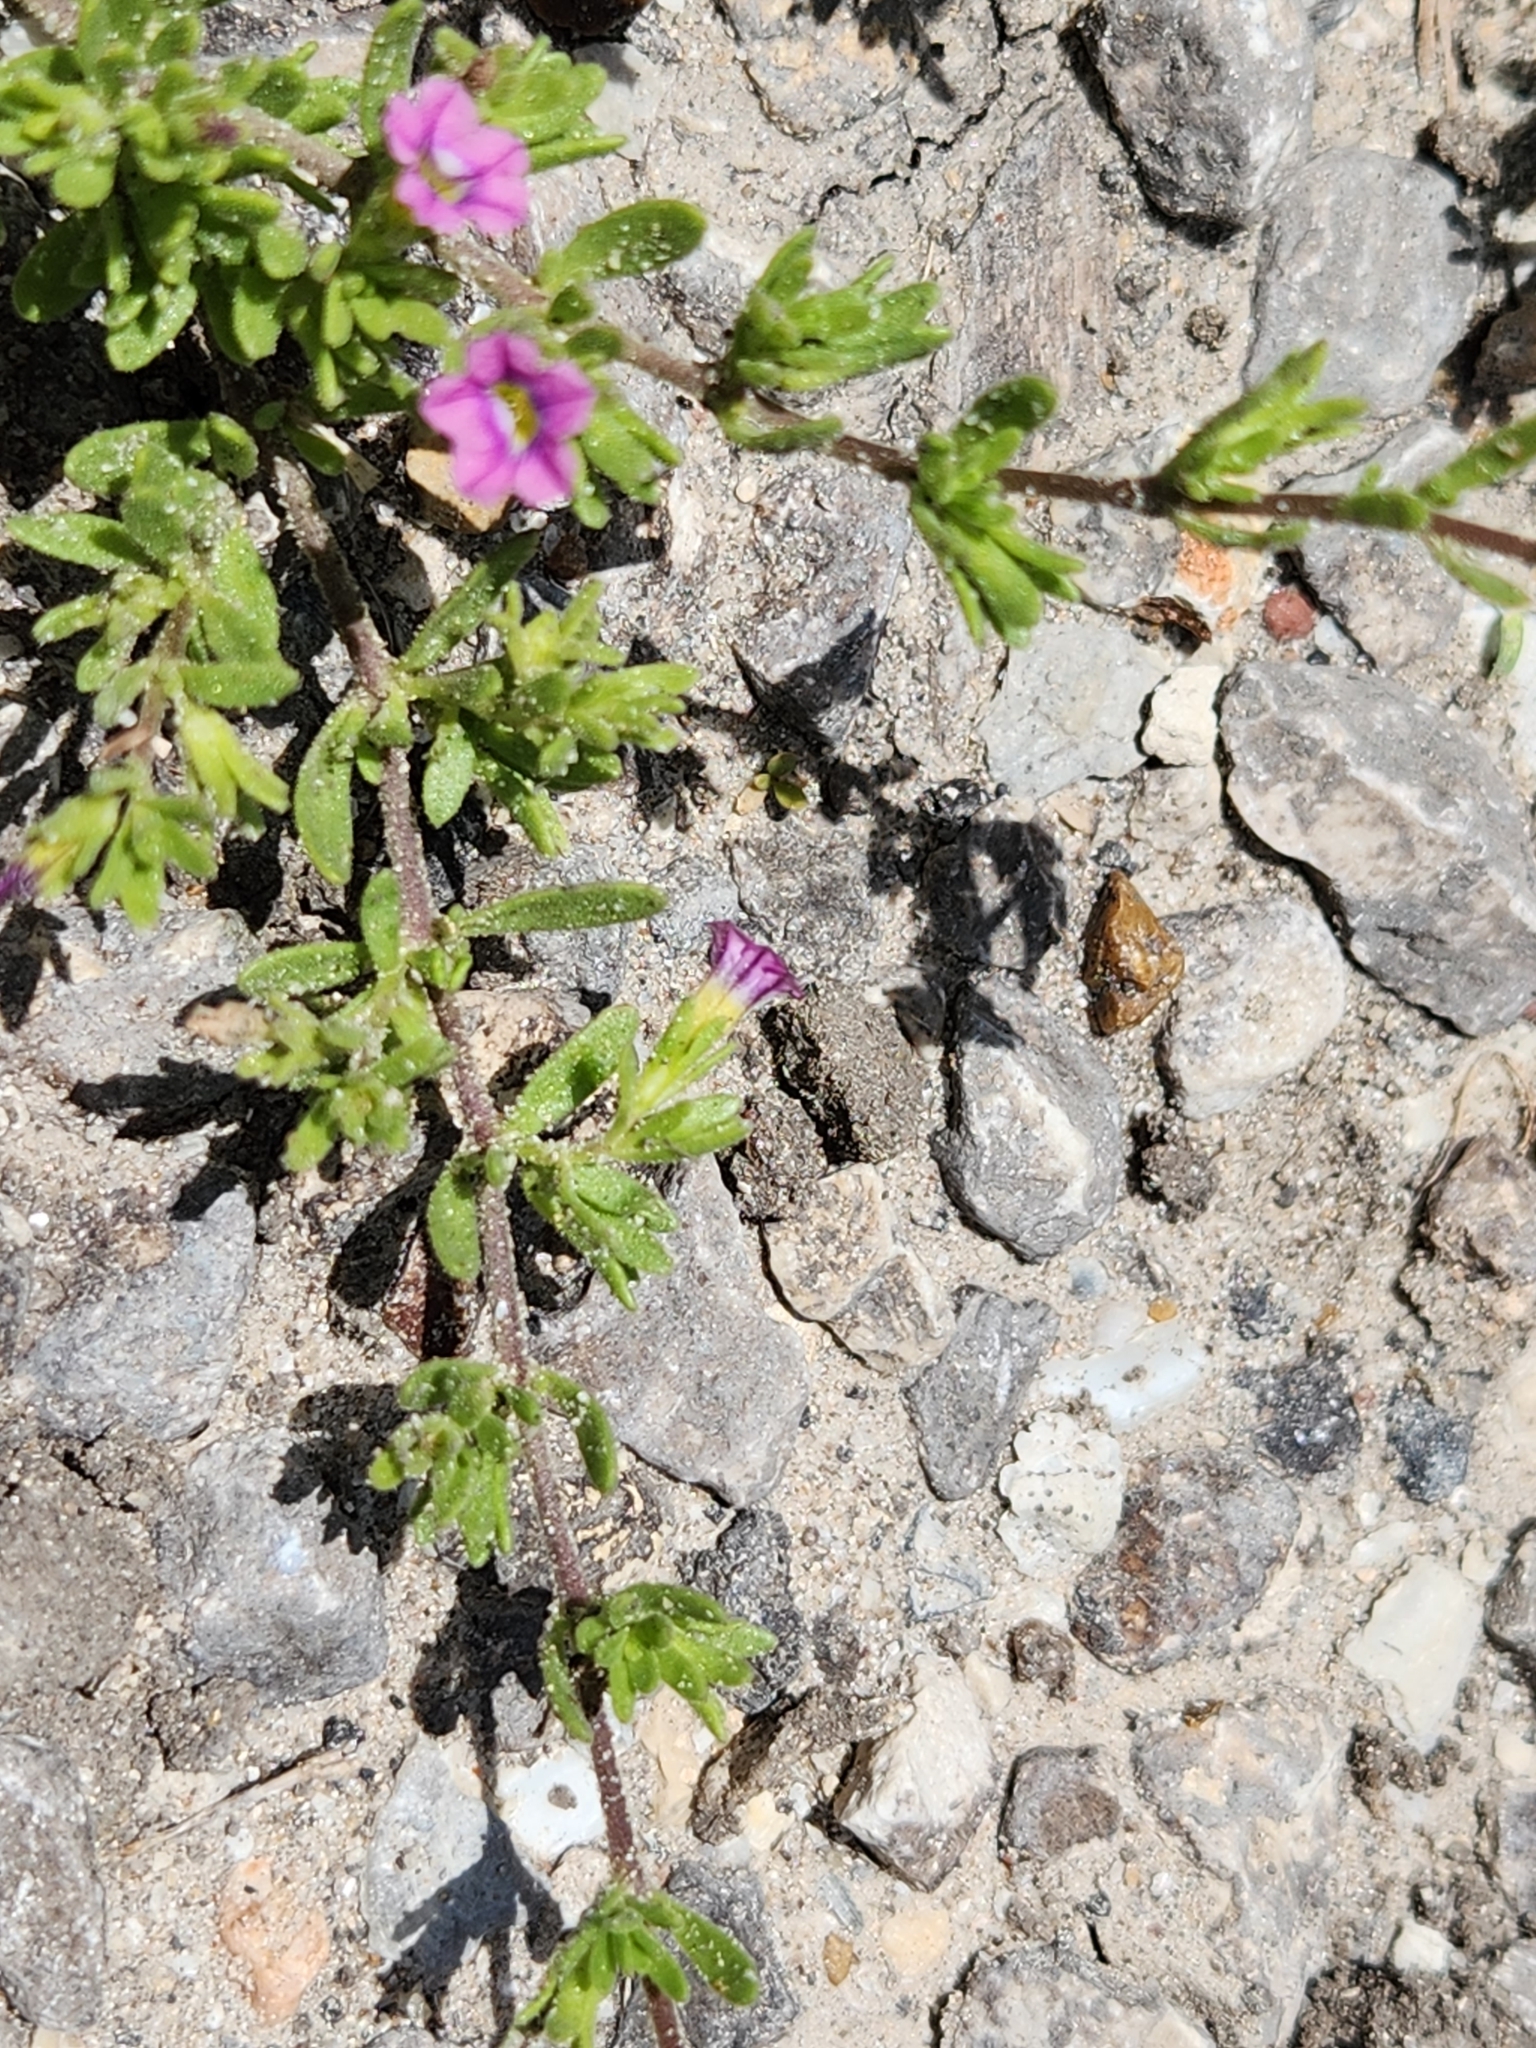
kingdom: Plantae
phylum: Tracheophyta
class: Magnoliopsida
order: Solanales
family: Solanaceae
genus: Calibrachoa
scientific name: Calibrachoa parviflora
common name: Seaside petunia
